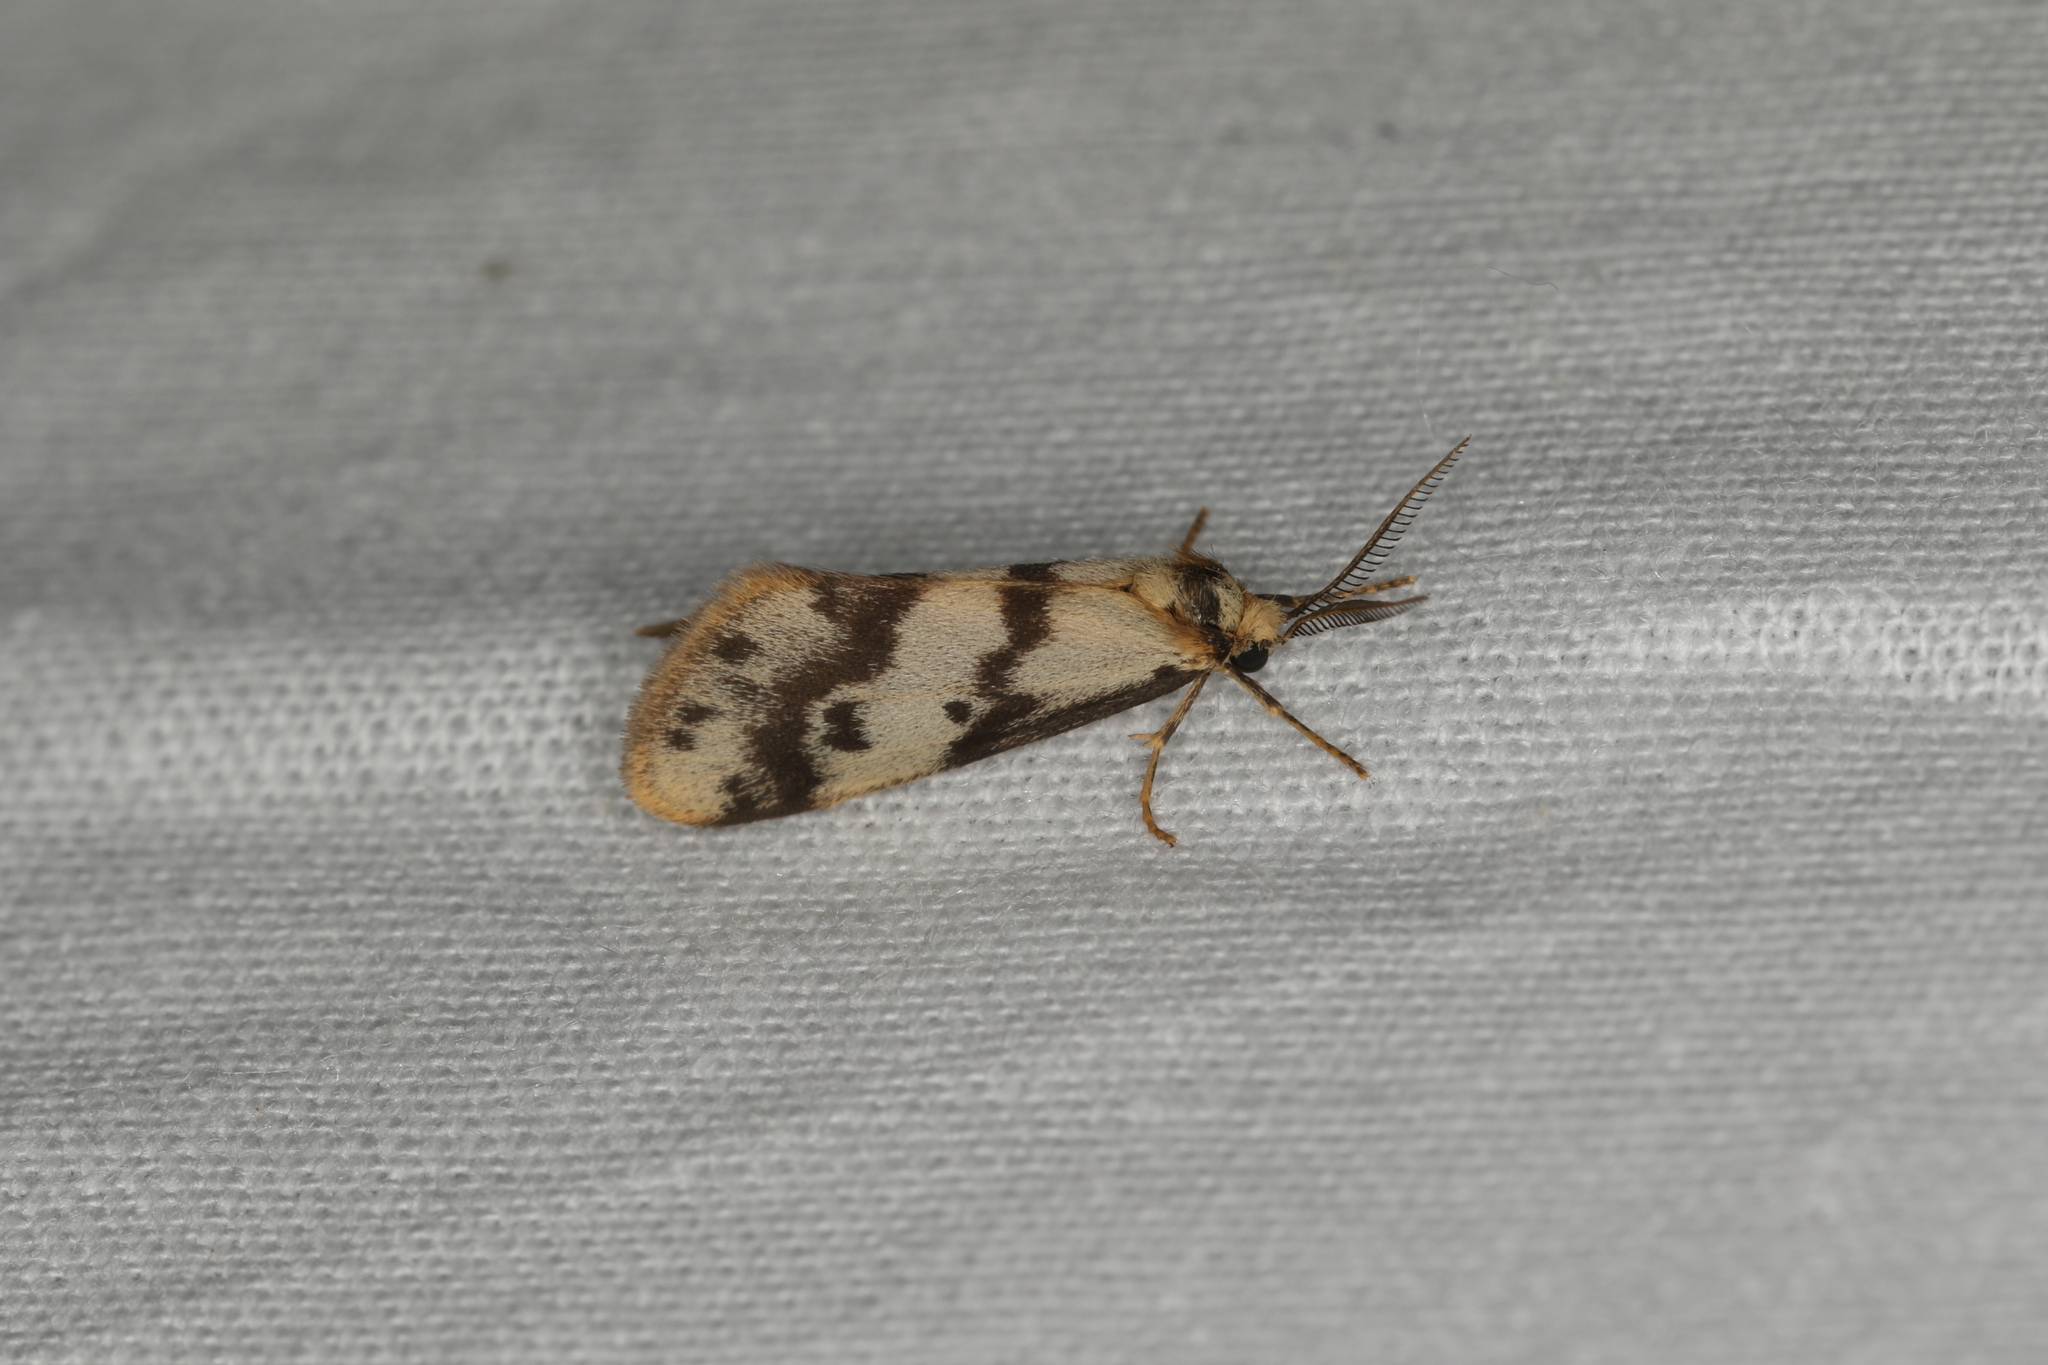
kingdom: Animalia
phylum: Arthropoda
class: Insecta
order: Lepidoptera
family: Erebidae
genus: Anestia
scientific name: Anestia
